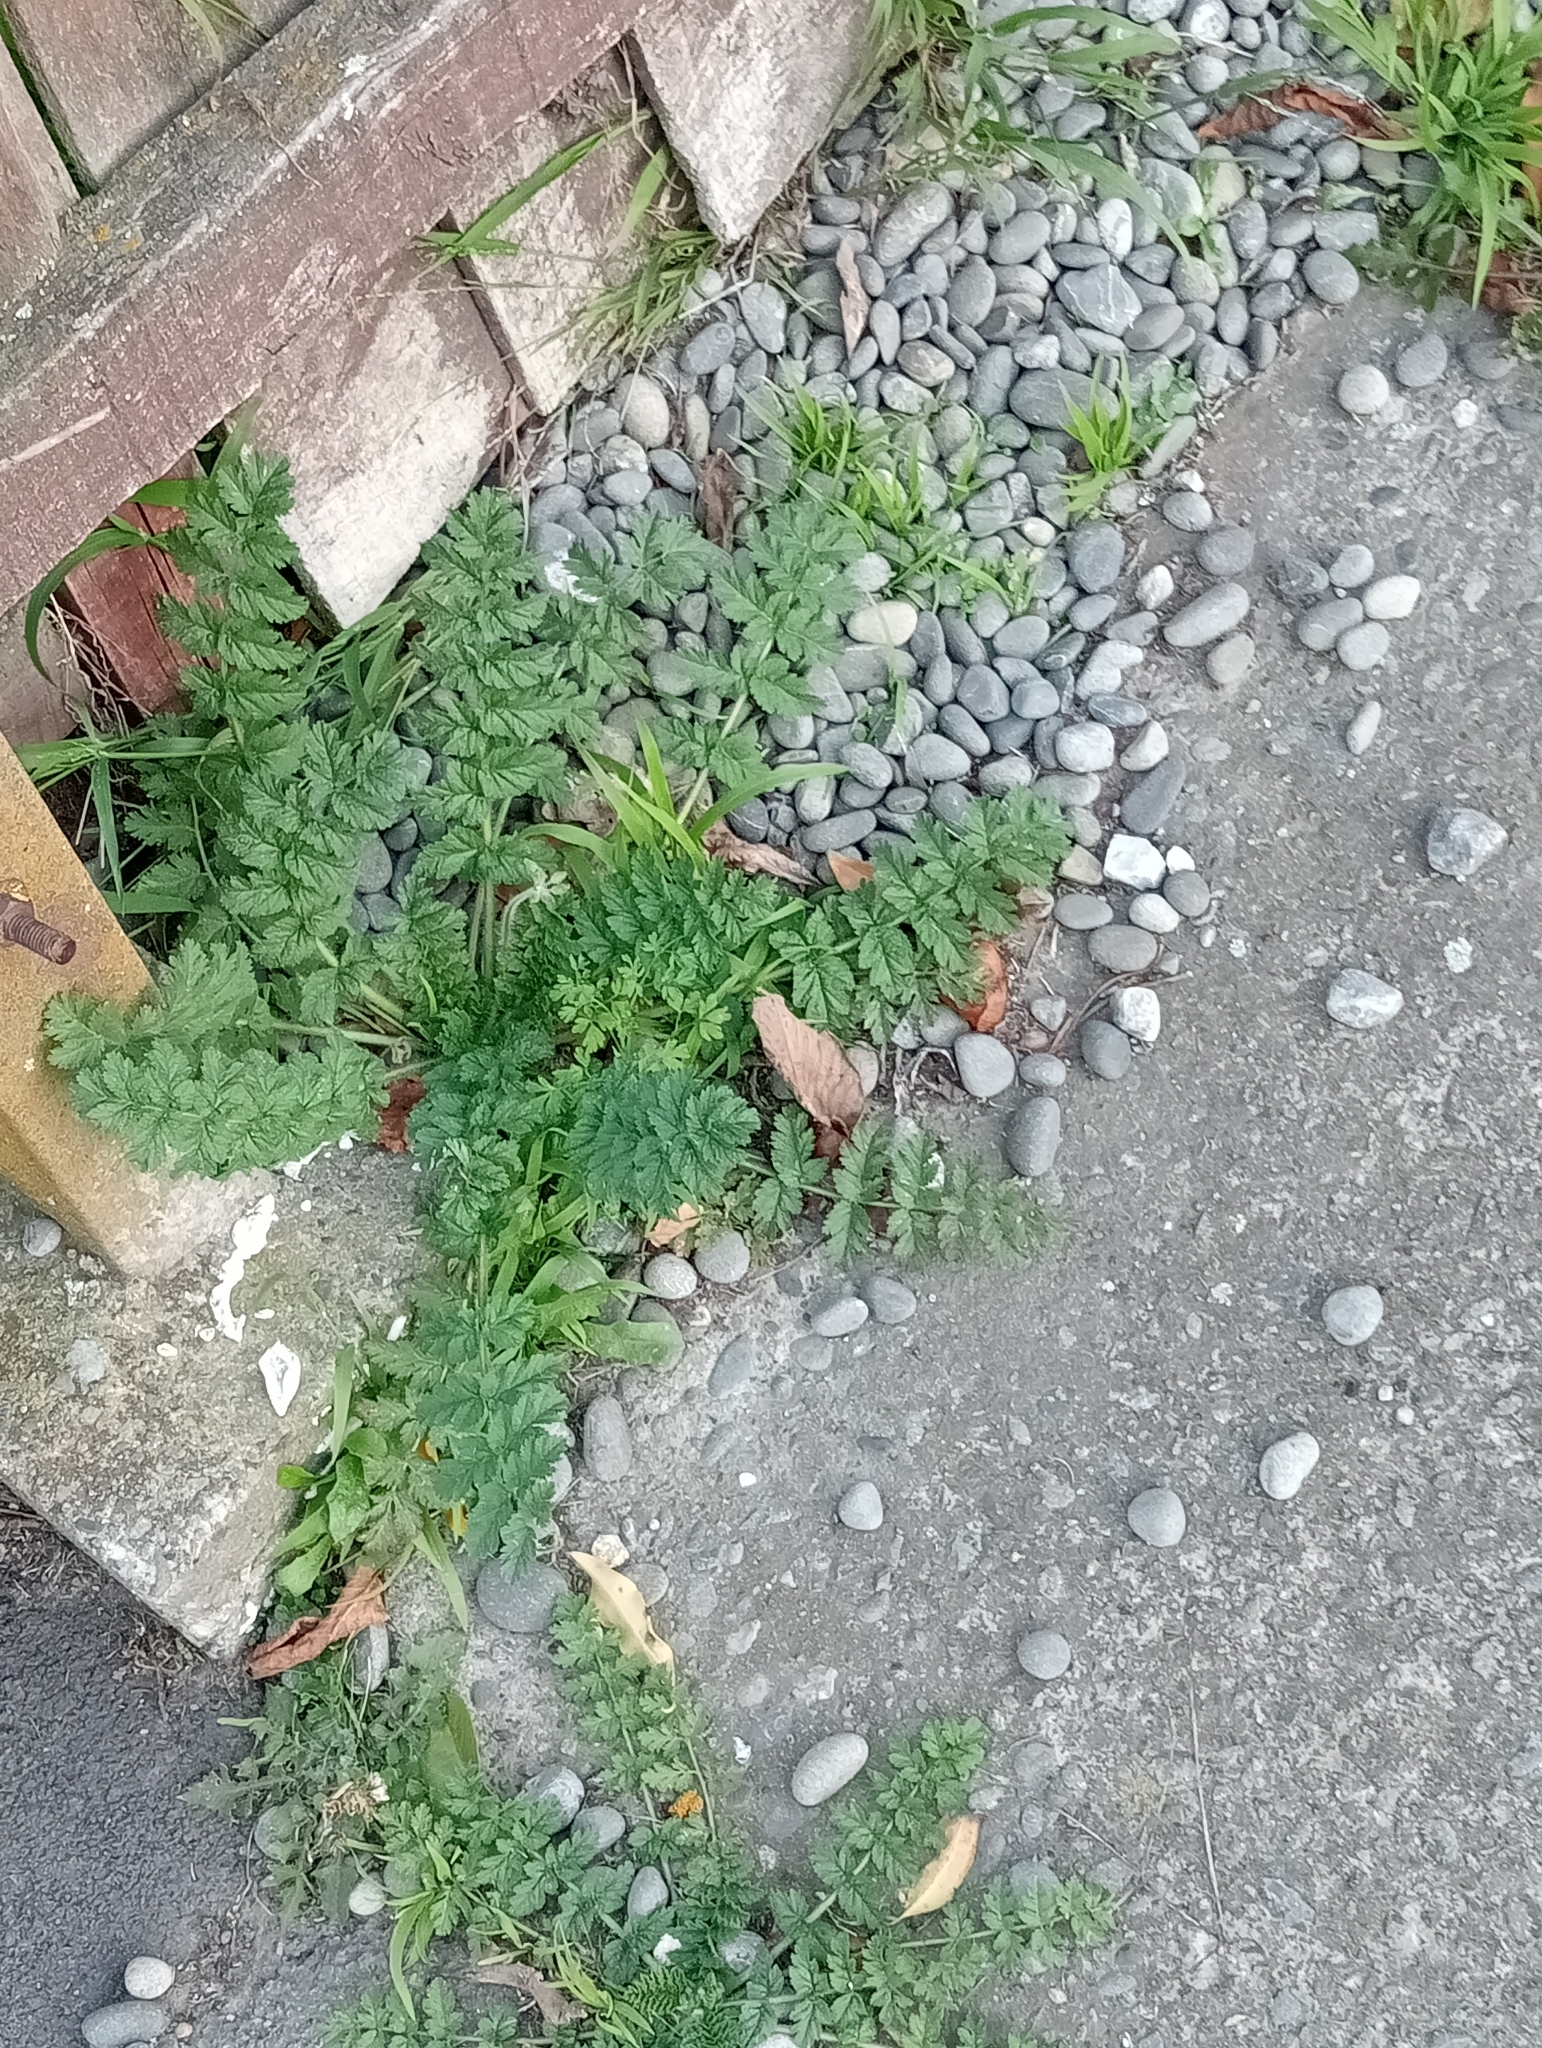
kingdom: Plantae
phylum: Tracheophyta
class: Magnoliopsida
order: Geraniales
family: Geraniaceae
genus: Erodium
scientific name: Erodium moschatum
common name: Musk stork's-bill
